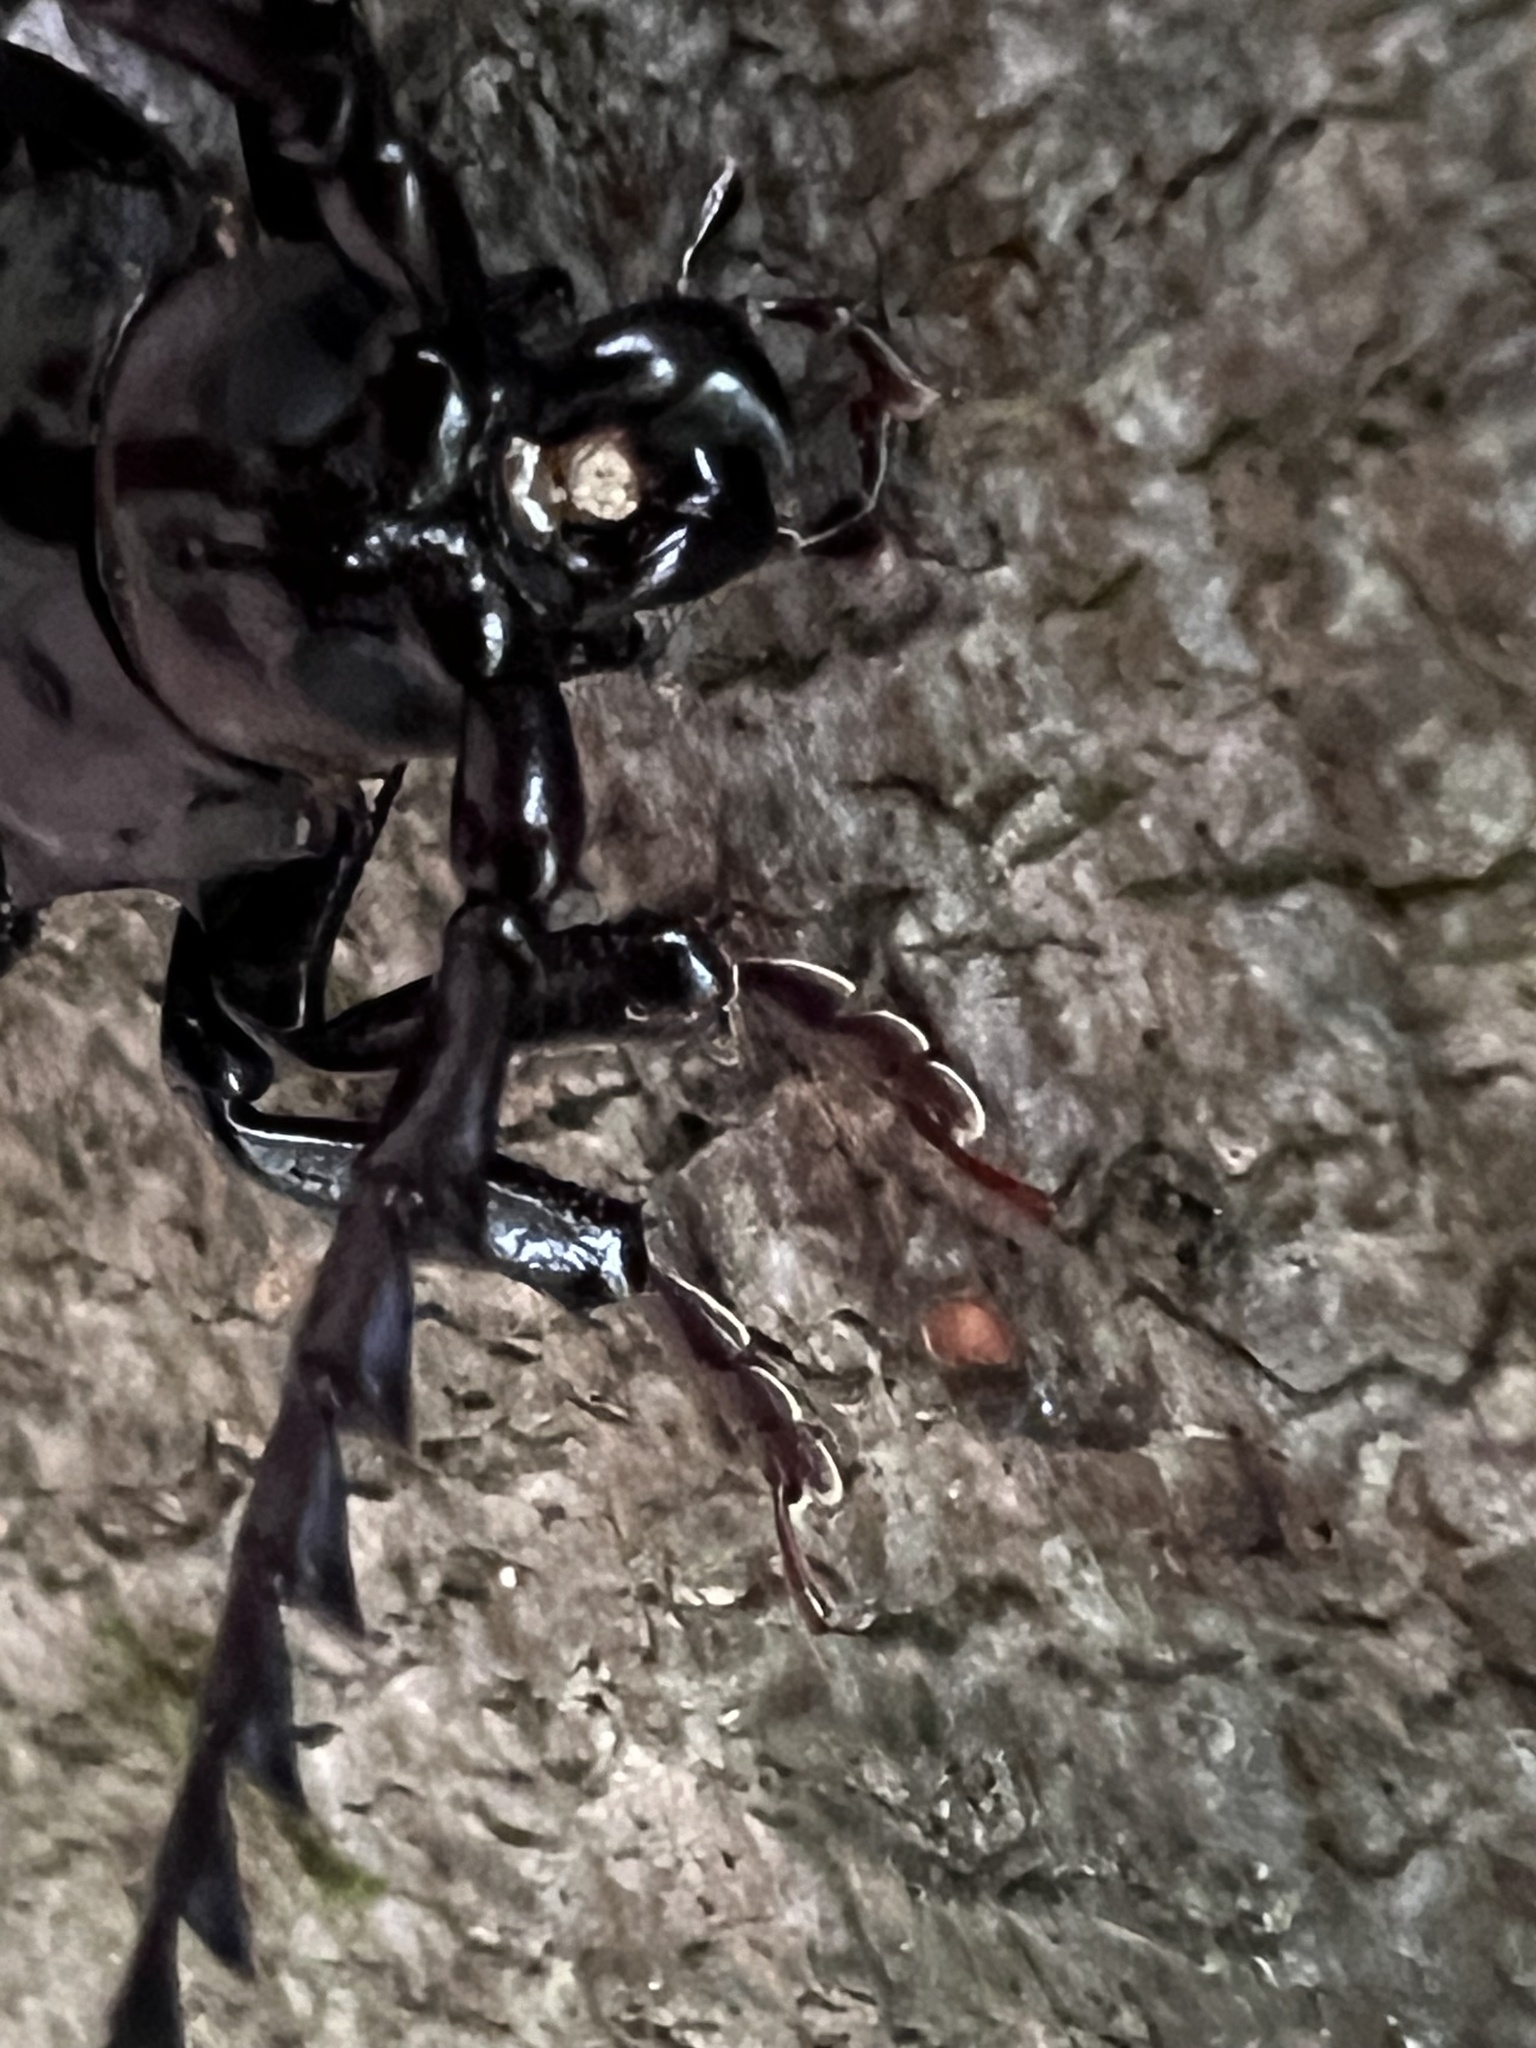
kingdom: Animalia
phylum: Arthropoda
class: Insecta
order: Coleoptera
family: Cerambycidae
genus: Prionus
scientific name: Prionus laticollis
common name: Broad necked prionus
